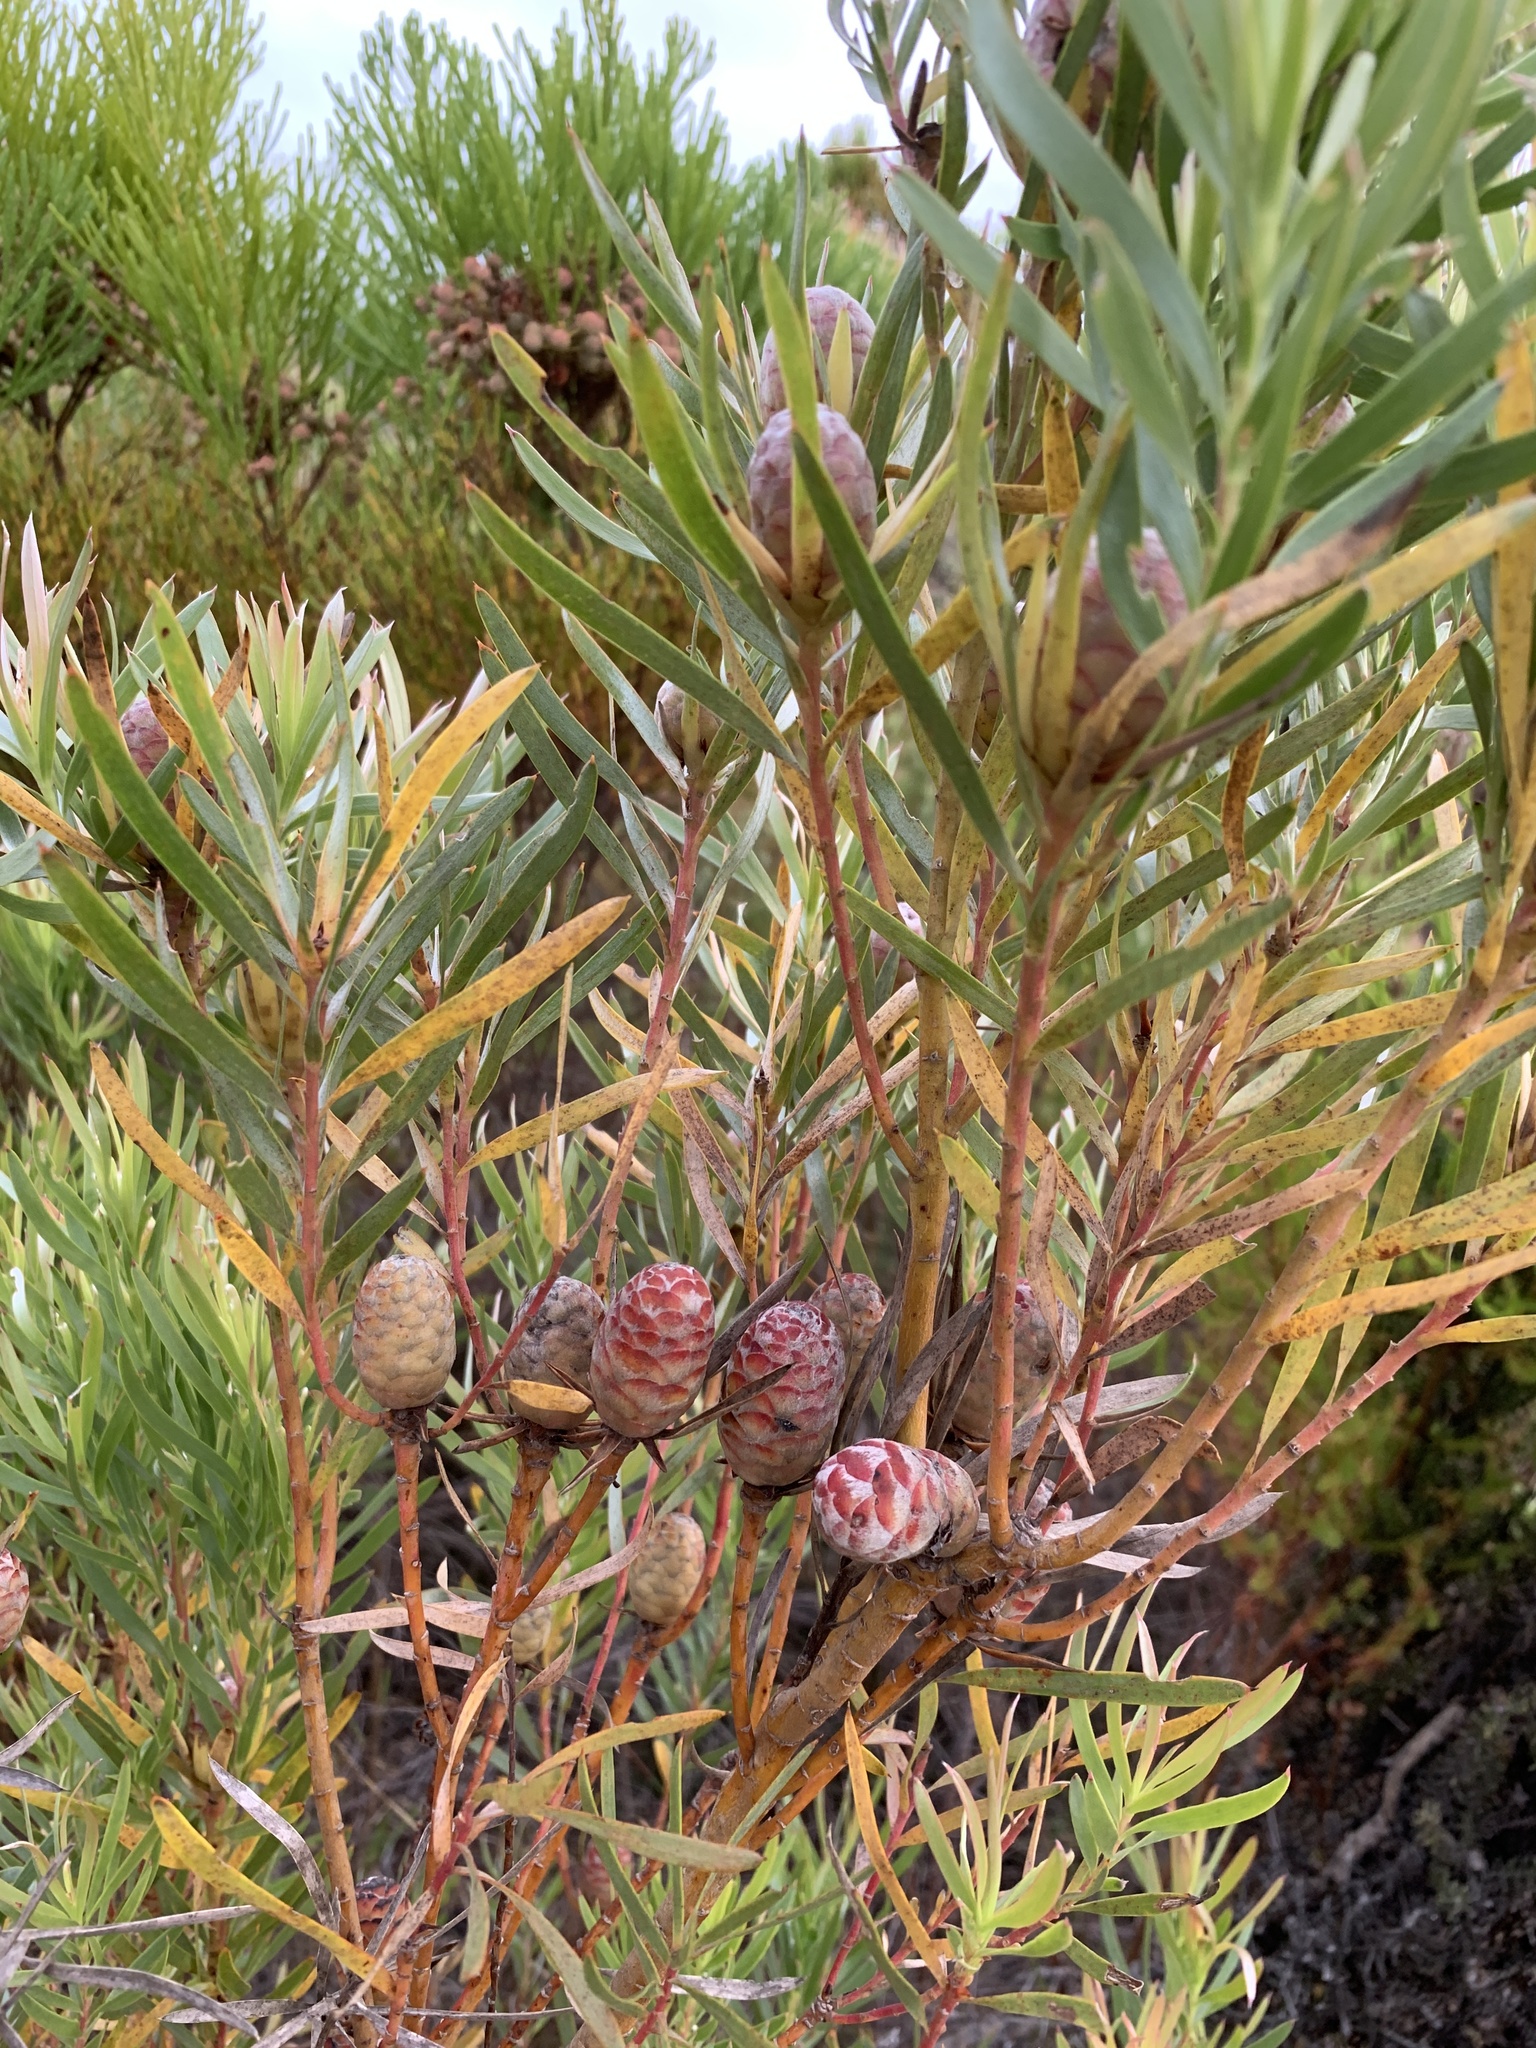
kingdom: Plantae
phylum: Tracheophyta
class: Magnoliopsida
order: Proteales
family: Proteaceae
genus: Leucadendron
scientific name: Leucadendron xanthoconus
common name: Sickle-leaf conebush
